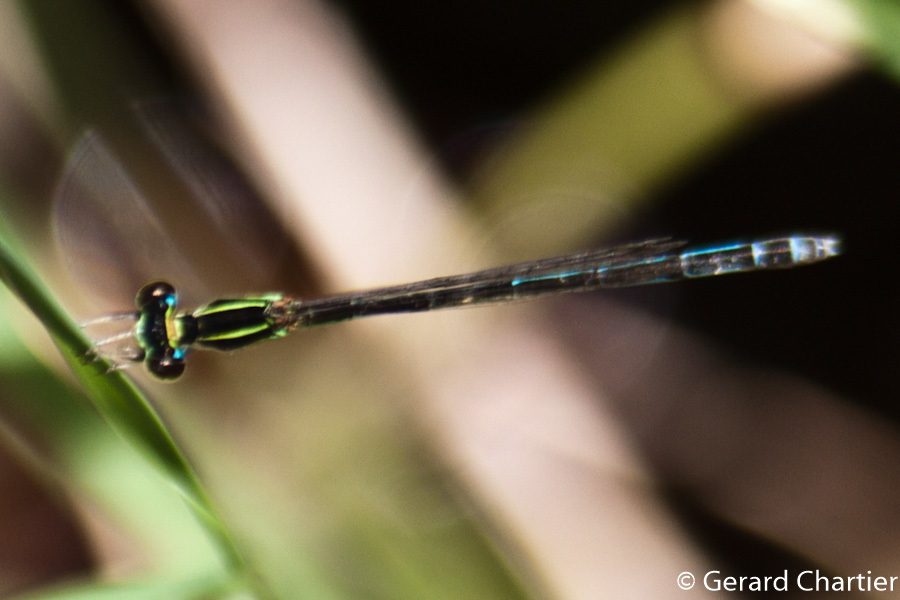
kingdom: Animalia
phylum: Arthropoda
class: Insecta
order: Odonata
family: Coenagrionidae
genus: Agriocnemis
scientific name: Agriocnemis nana
